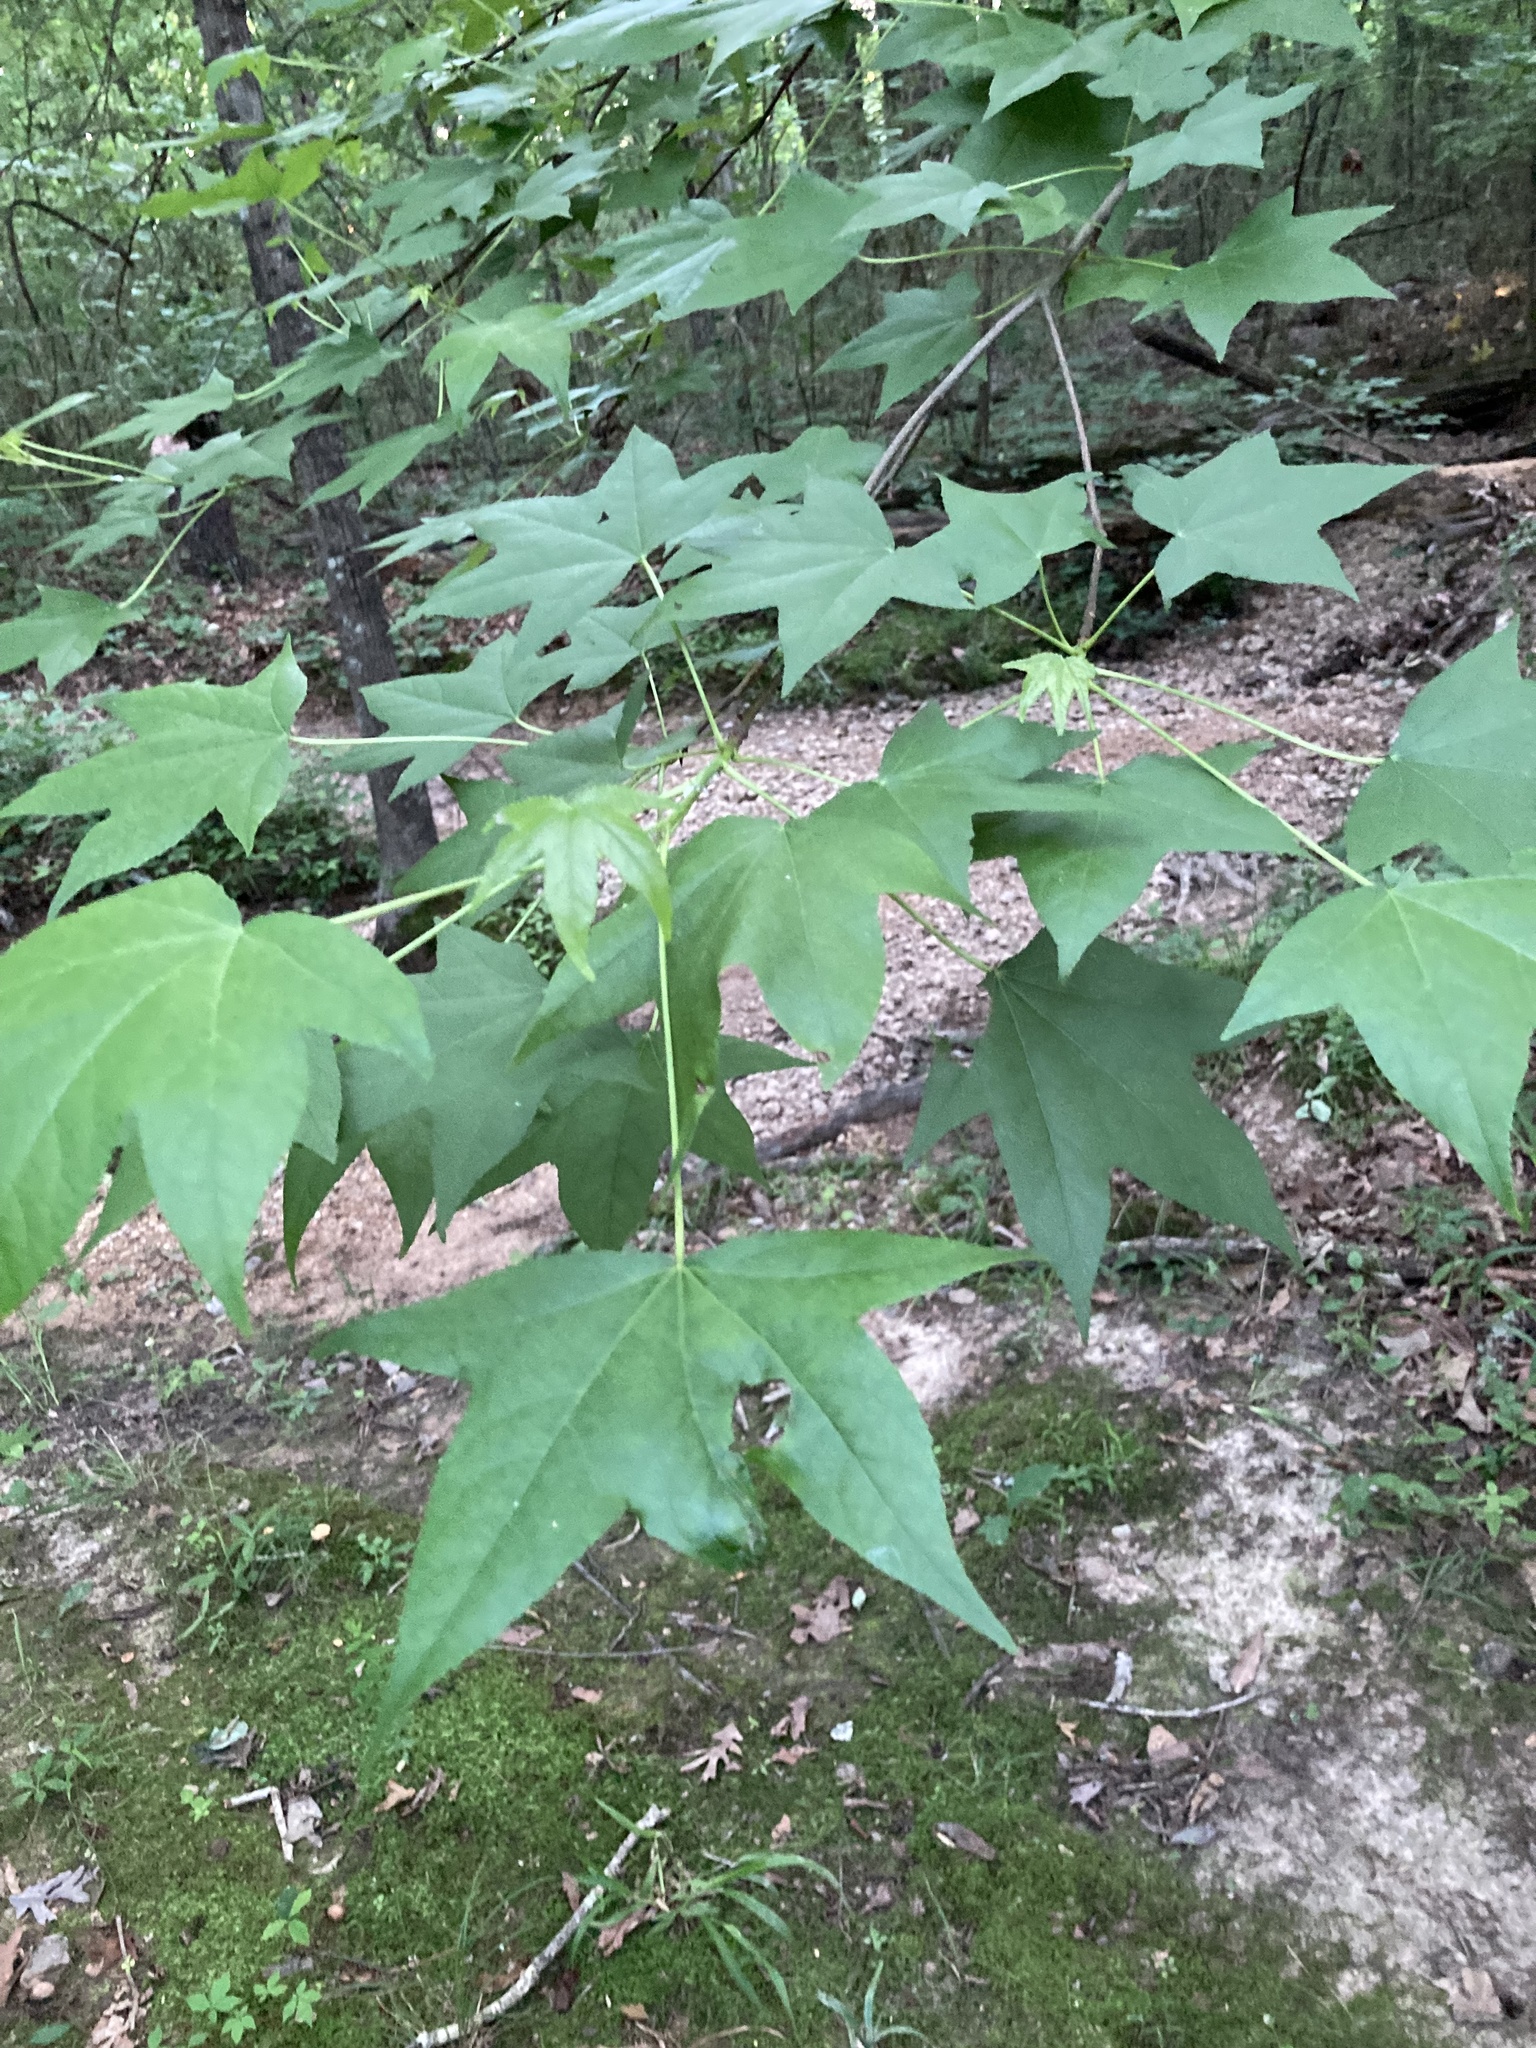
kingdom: Plantae
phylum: Tracheophyta
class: Magnoliopsida
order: Saxifragales
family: Altingiaceae
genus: Liquidambar
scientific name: Liquidambar styraciflua
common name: Sweet gum
